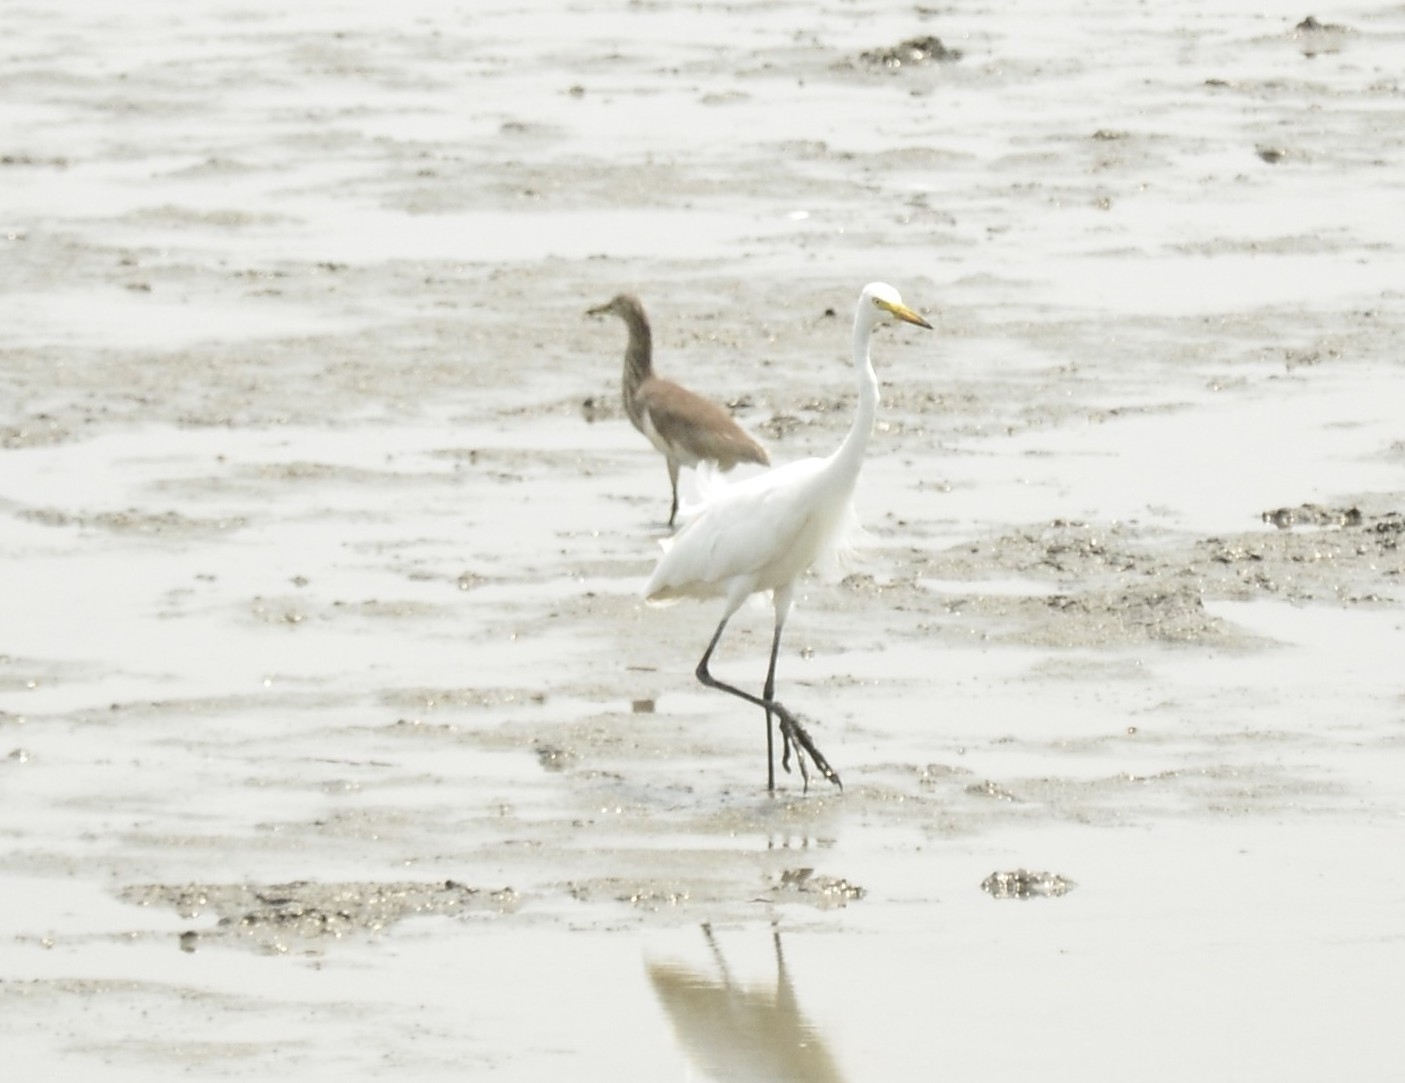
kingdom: Animalia
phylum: Chordata
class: Aves
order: Pelecaniformes
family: Ardeidae
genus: Egretta
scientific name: Egretta intermedia
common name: Intermediate egret
